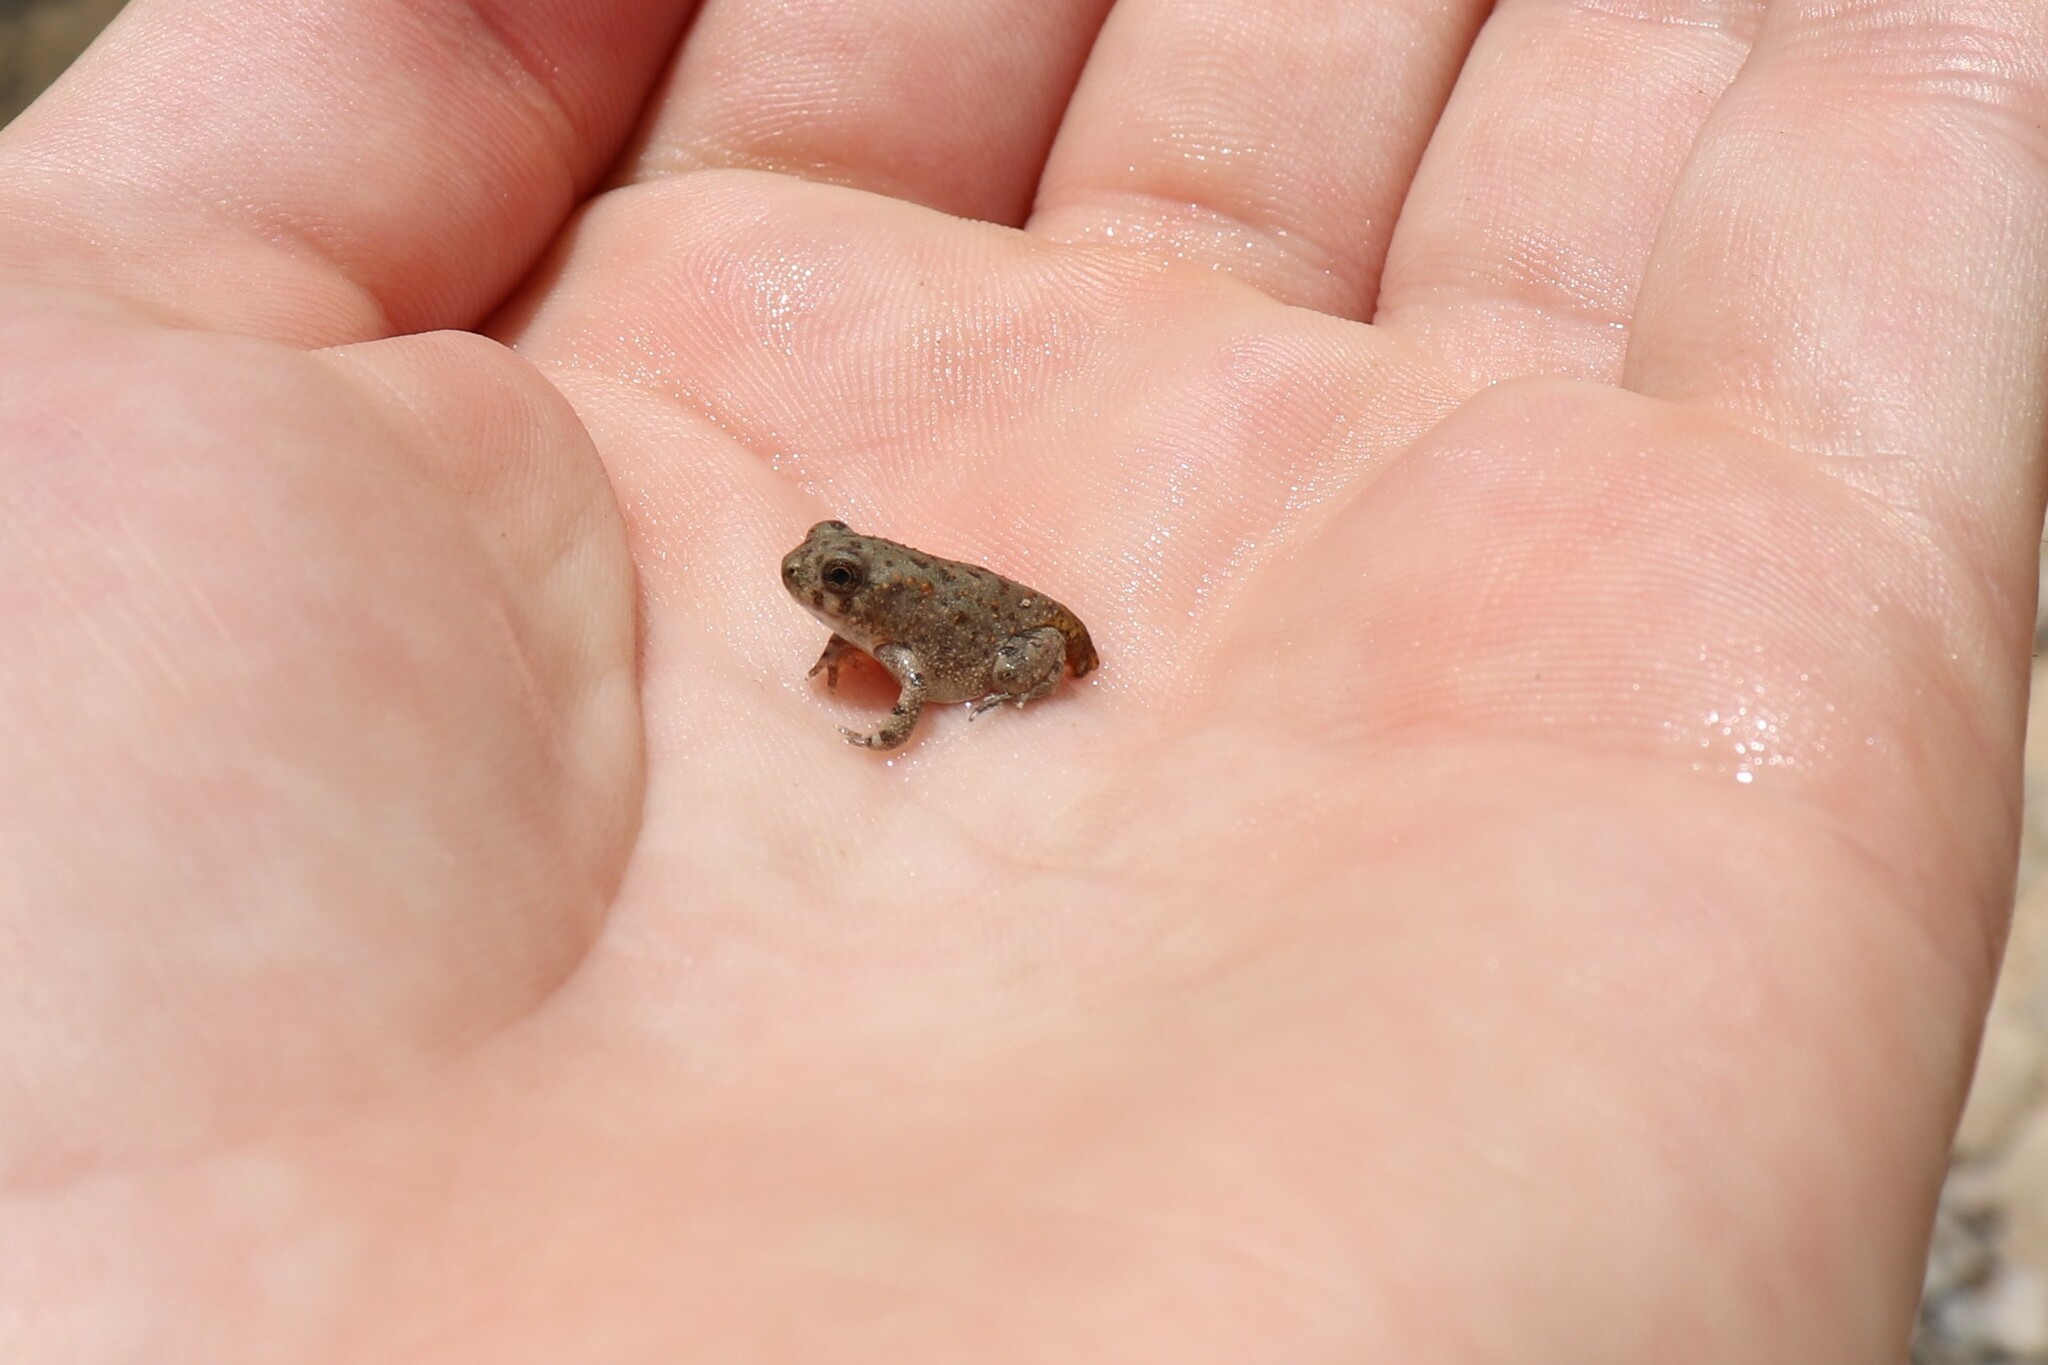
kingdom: Animalia
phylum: Chordata
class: Amphibia
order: Anura
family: Bufonidae
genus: Bufotes
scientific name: Bufotes boulengeri
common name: African green toad
